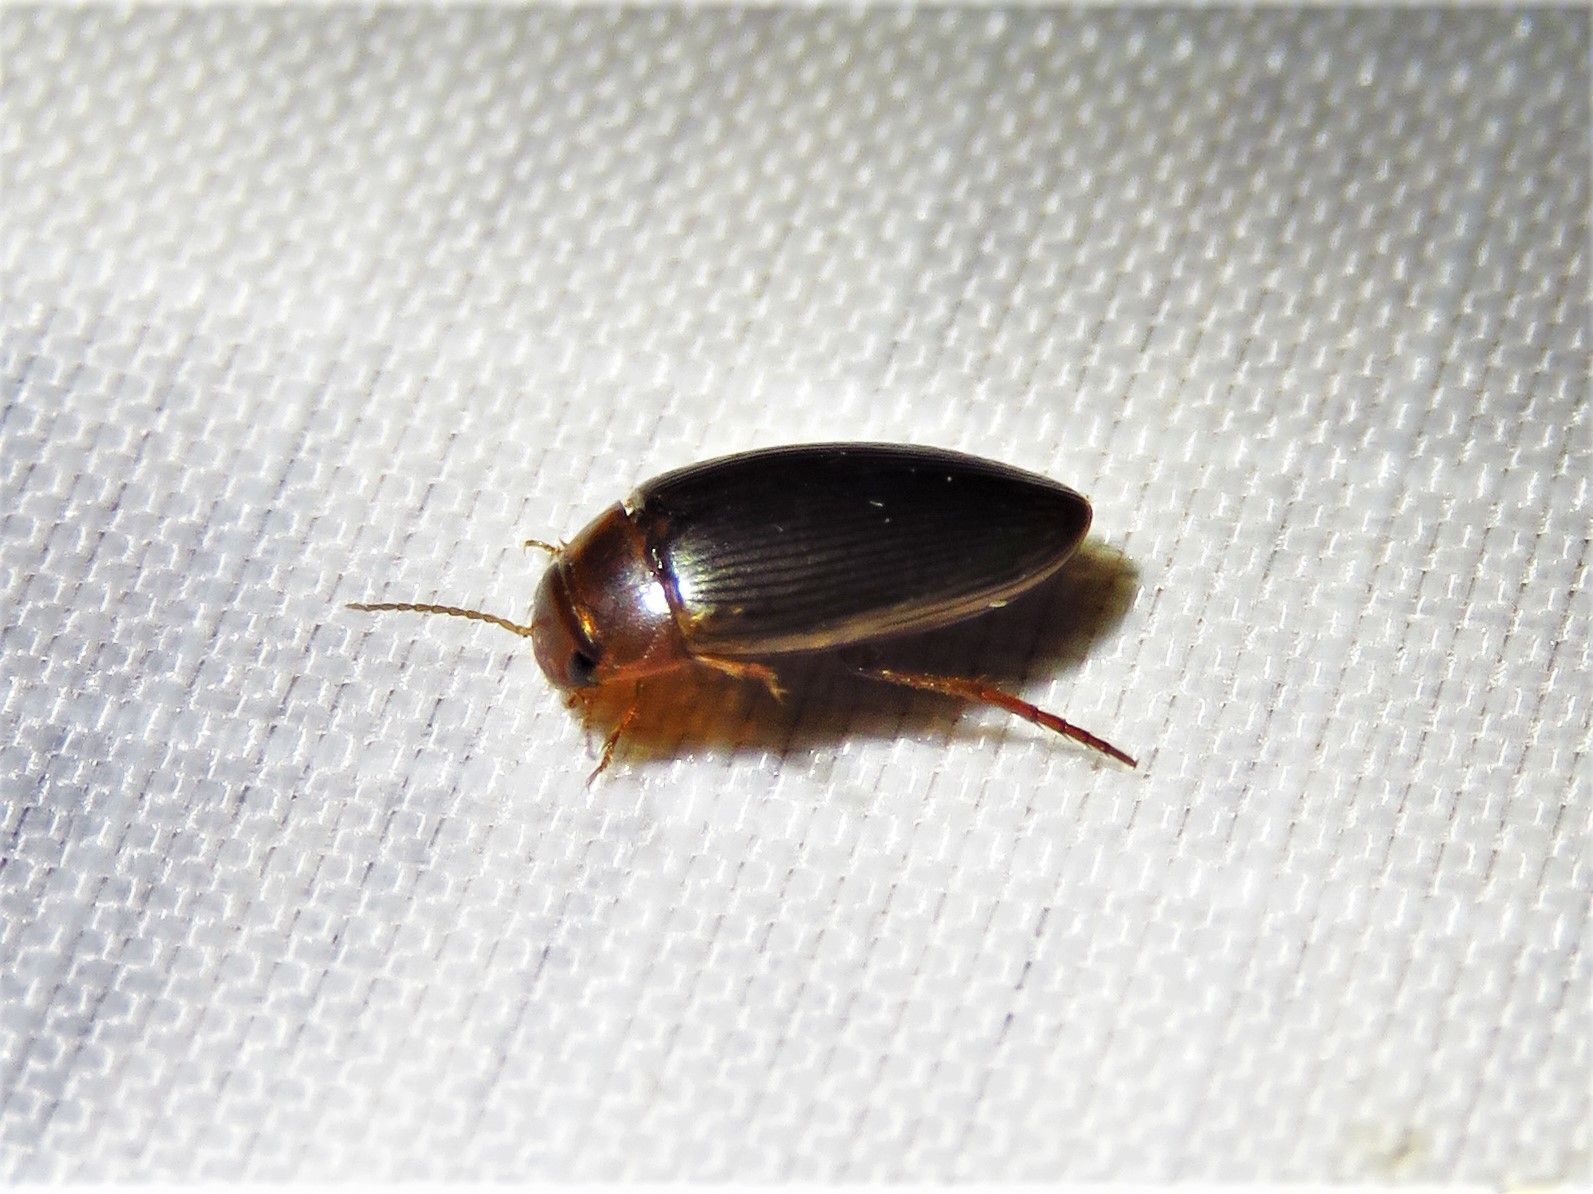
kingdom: Animalia
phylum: Arthropoda
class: Insecta
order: Coleoptera
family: Dytiscidae
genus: Copelatus
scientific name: Copelatus glyphicus
